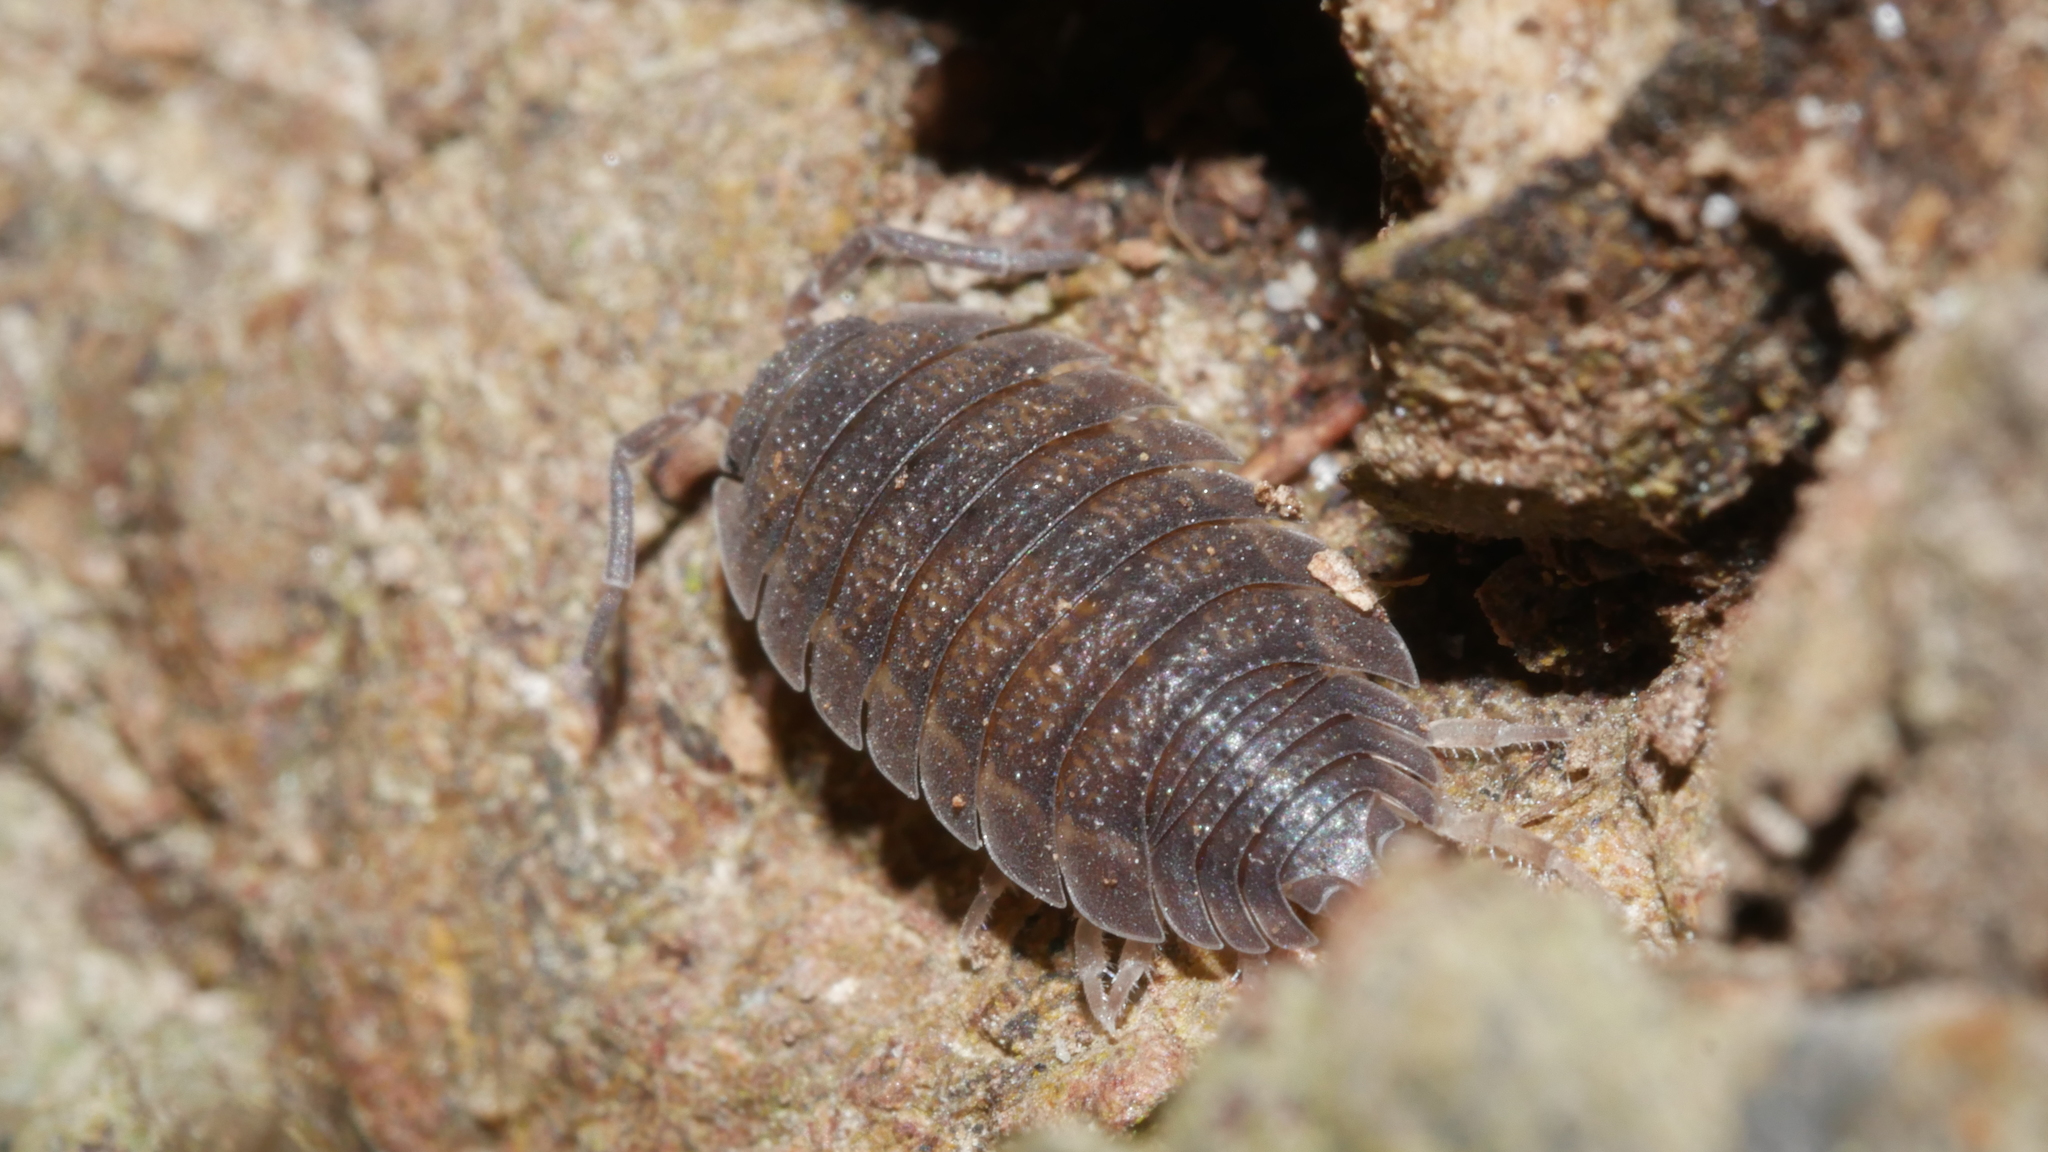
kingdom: Animalia
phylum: Arthropoda
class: Malacostraca
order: Isopoda
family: Porcellionidae
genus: Porcellio
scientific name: Porcellio scaber
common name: Common rough woodlouse
